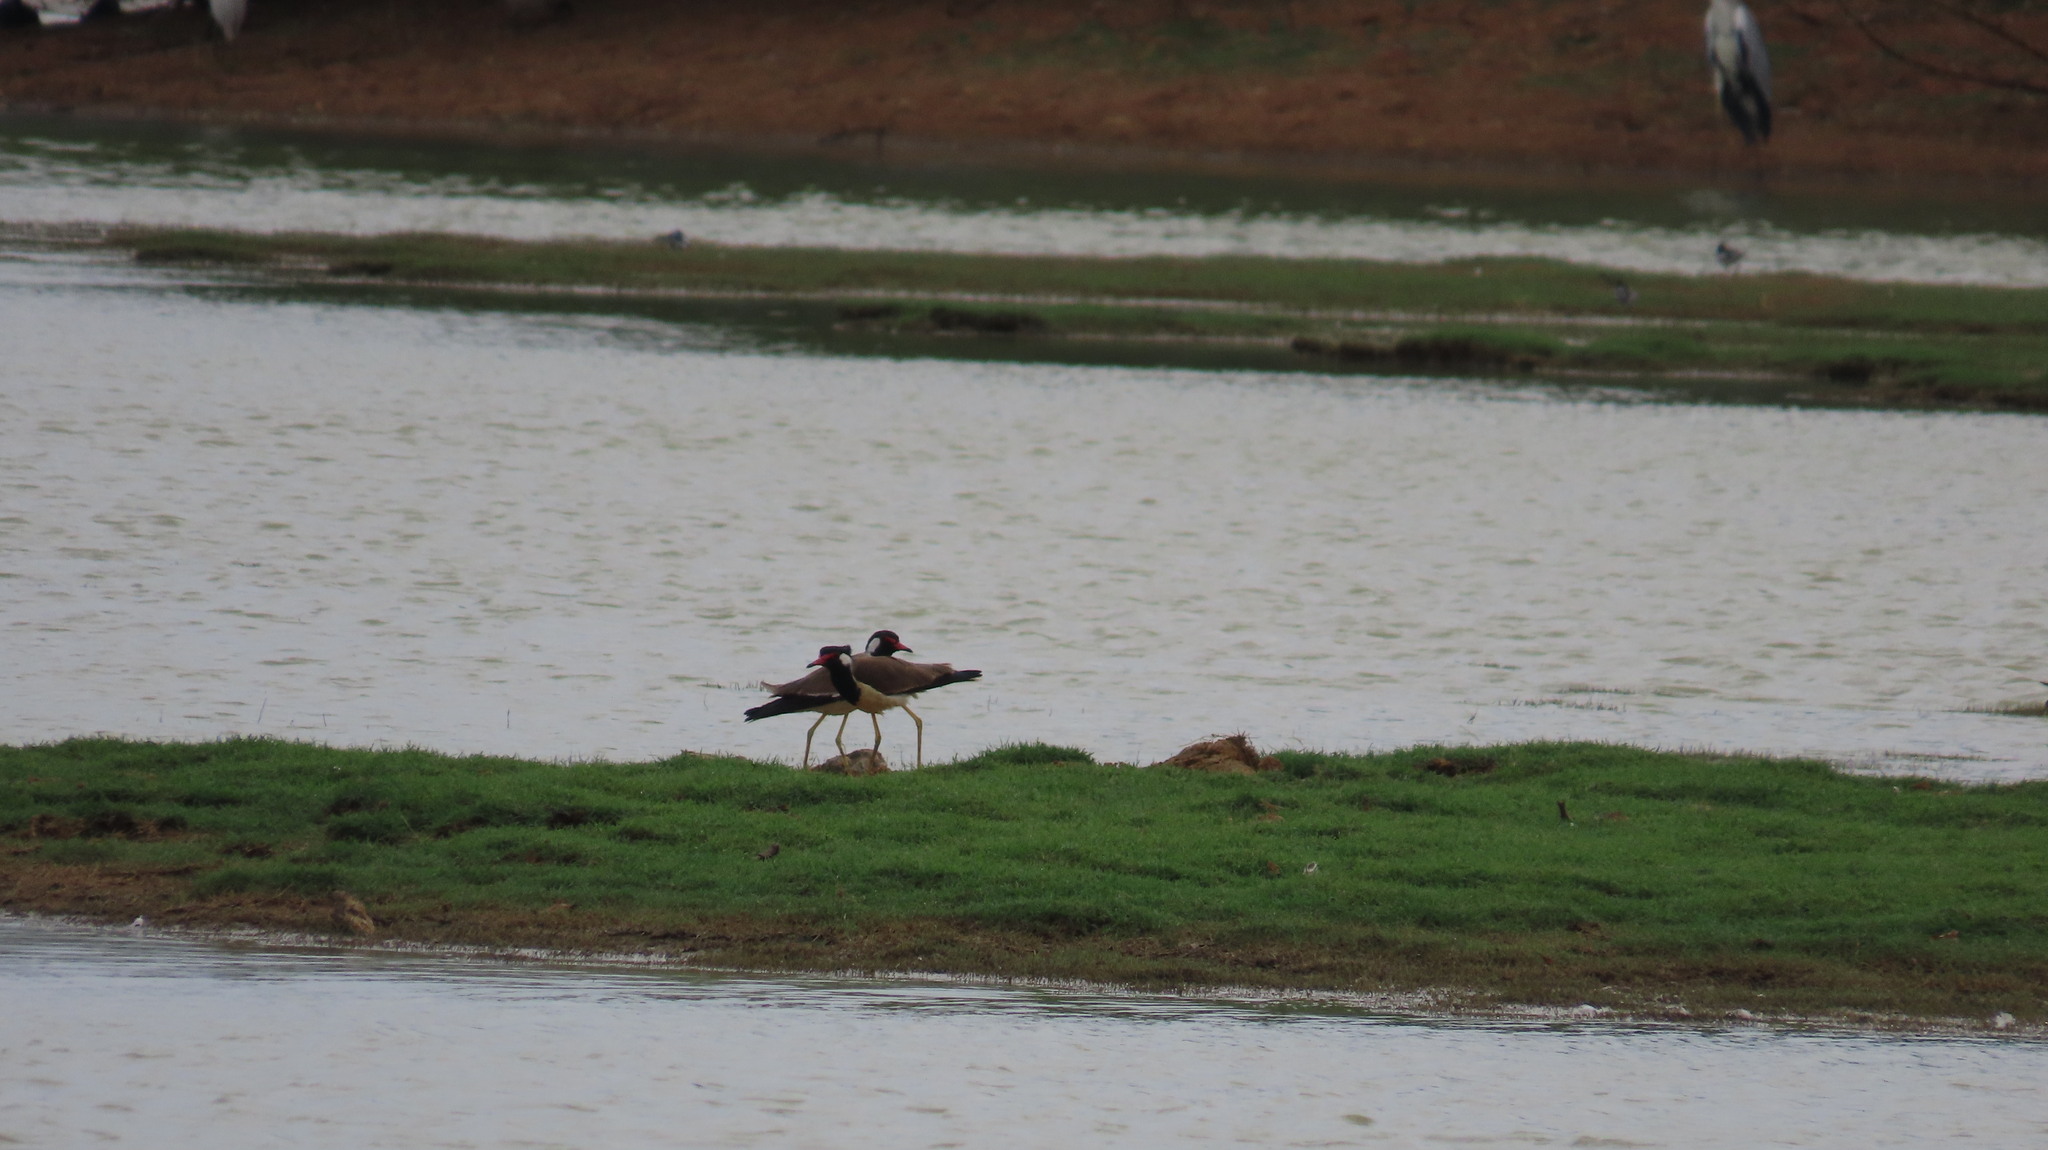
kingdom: Animalia
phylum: Chordata
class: Aves
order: Charadriiformes
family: Charadriidae
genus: Vanellus
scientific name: Vanellus indicus
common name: Red-wattled lapwing
